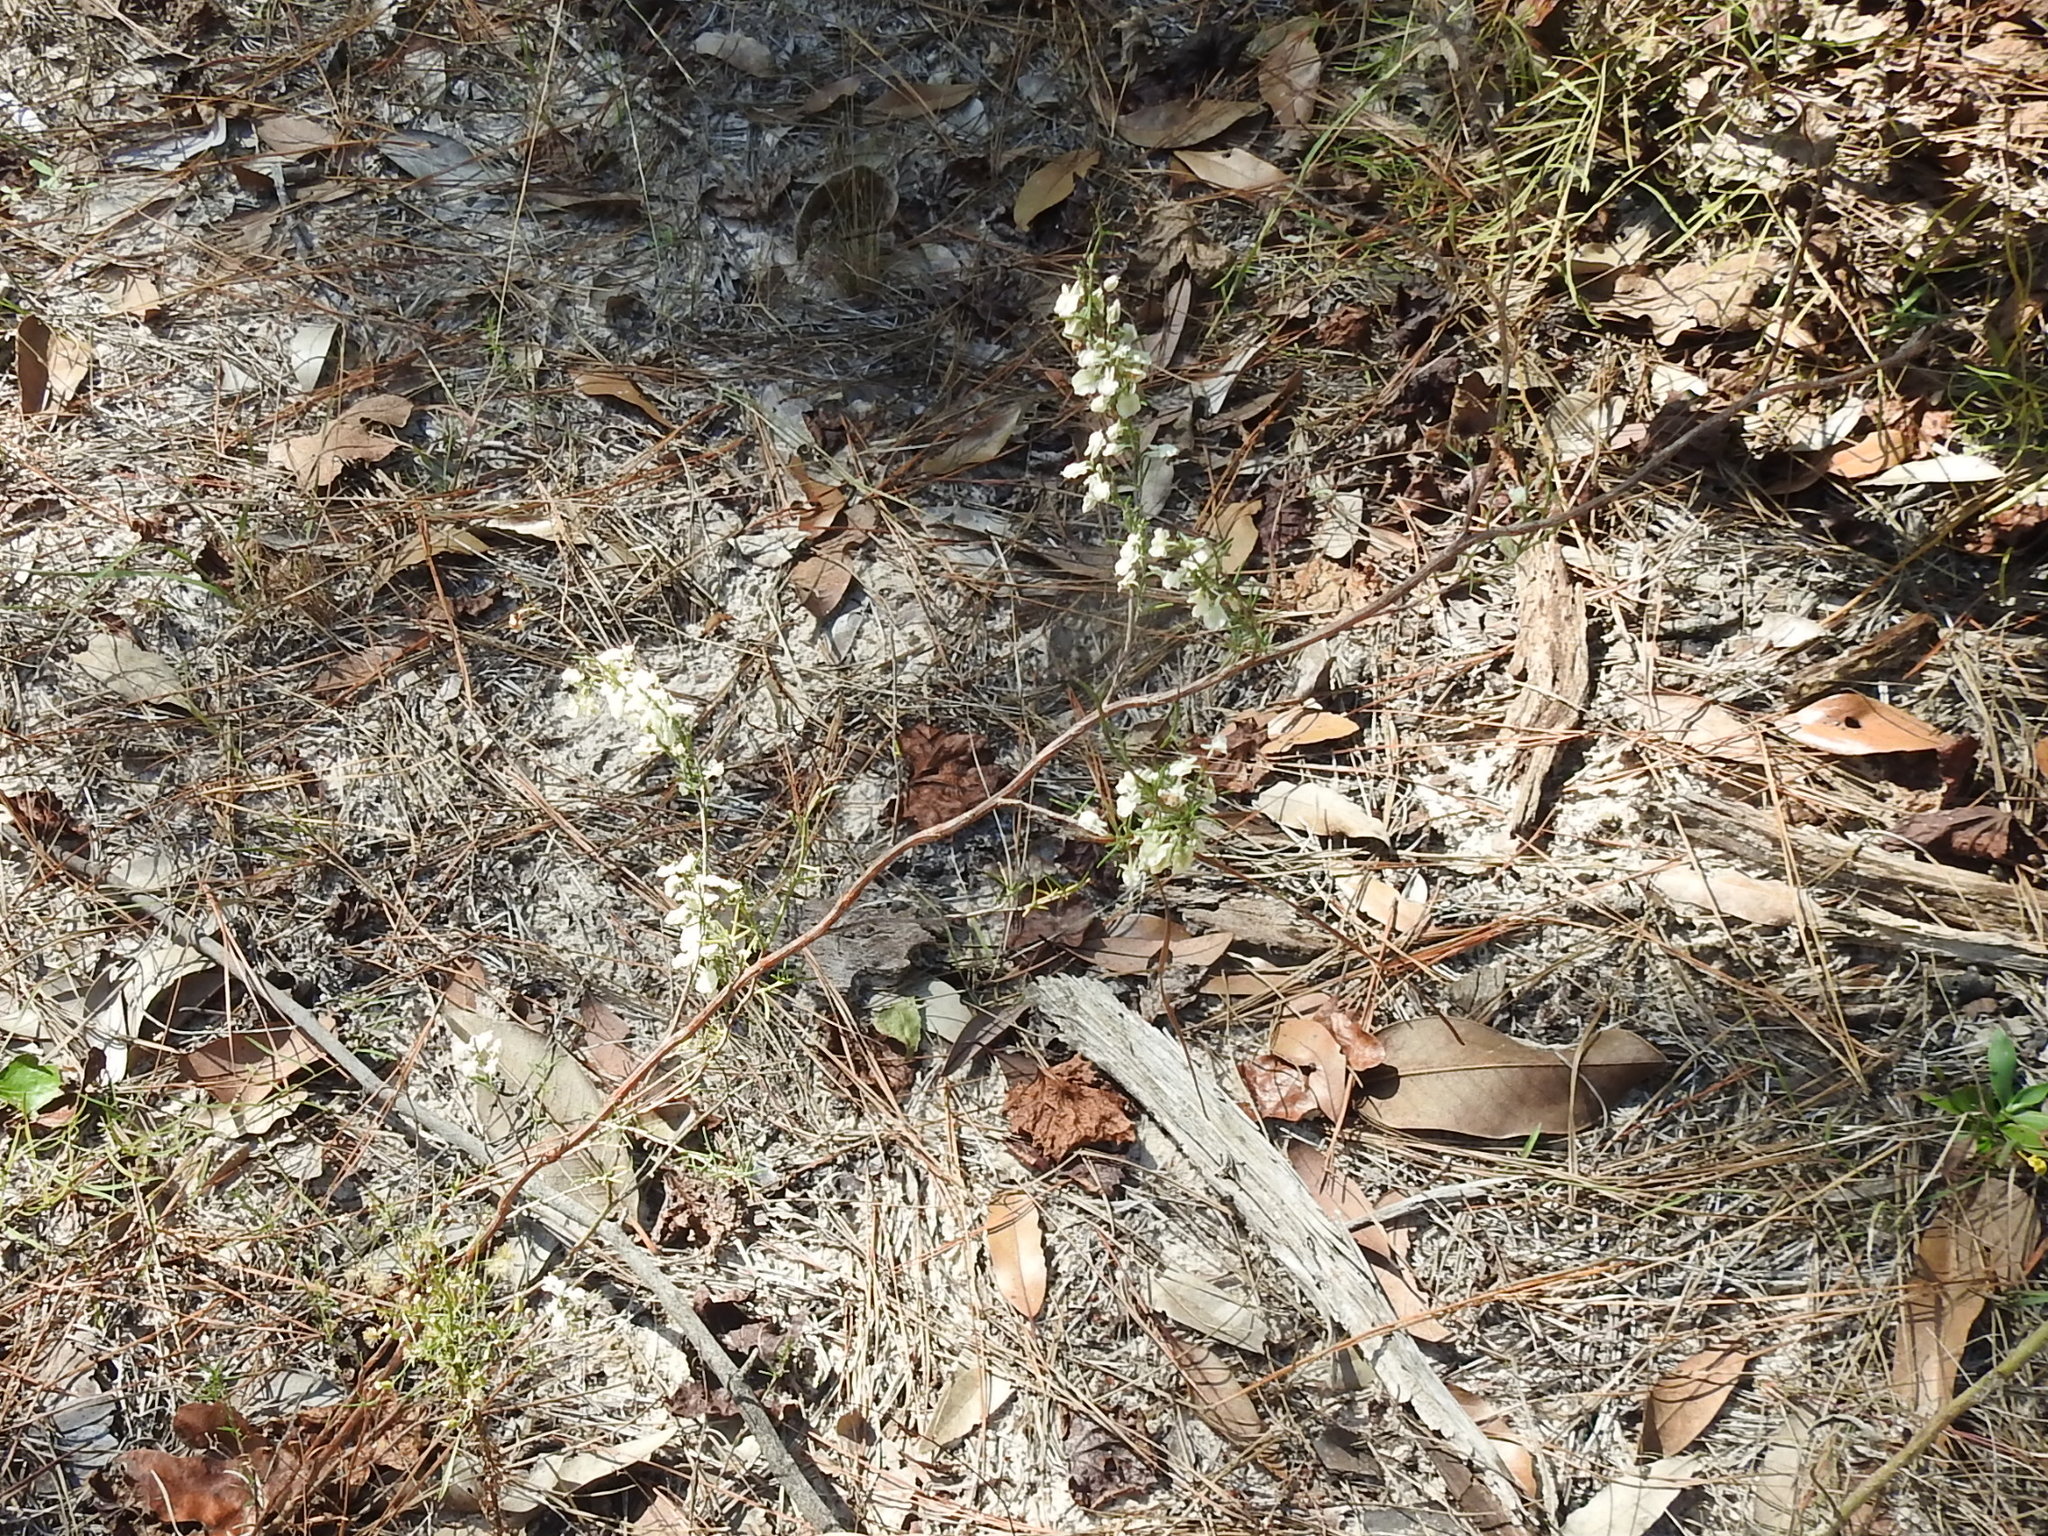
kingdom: Plantae
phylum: Tracheophyta
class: Magnoliopsida
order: Caryophyllales
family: Polygonaceae
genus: Polygonella
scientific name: Polygonella americana
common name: Southern jointweed
